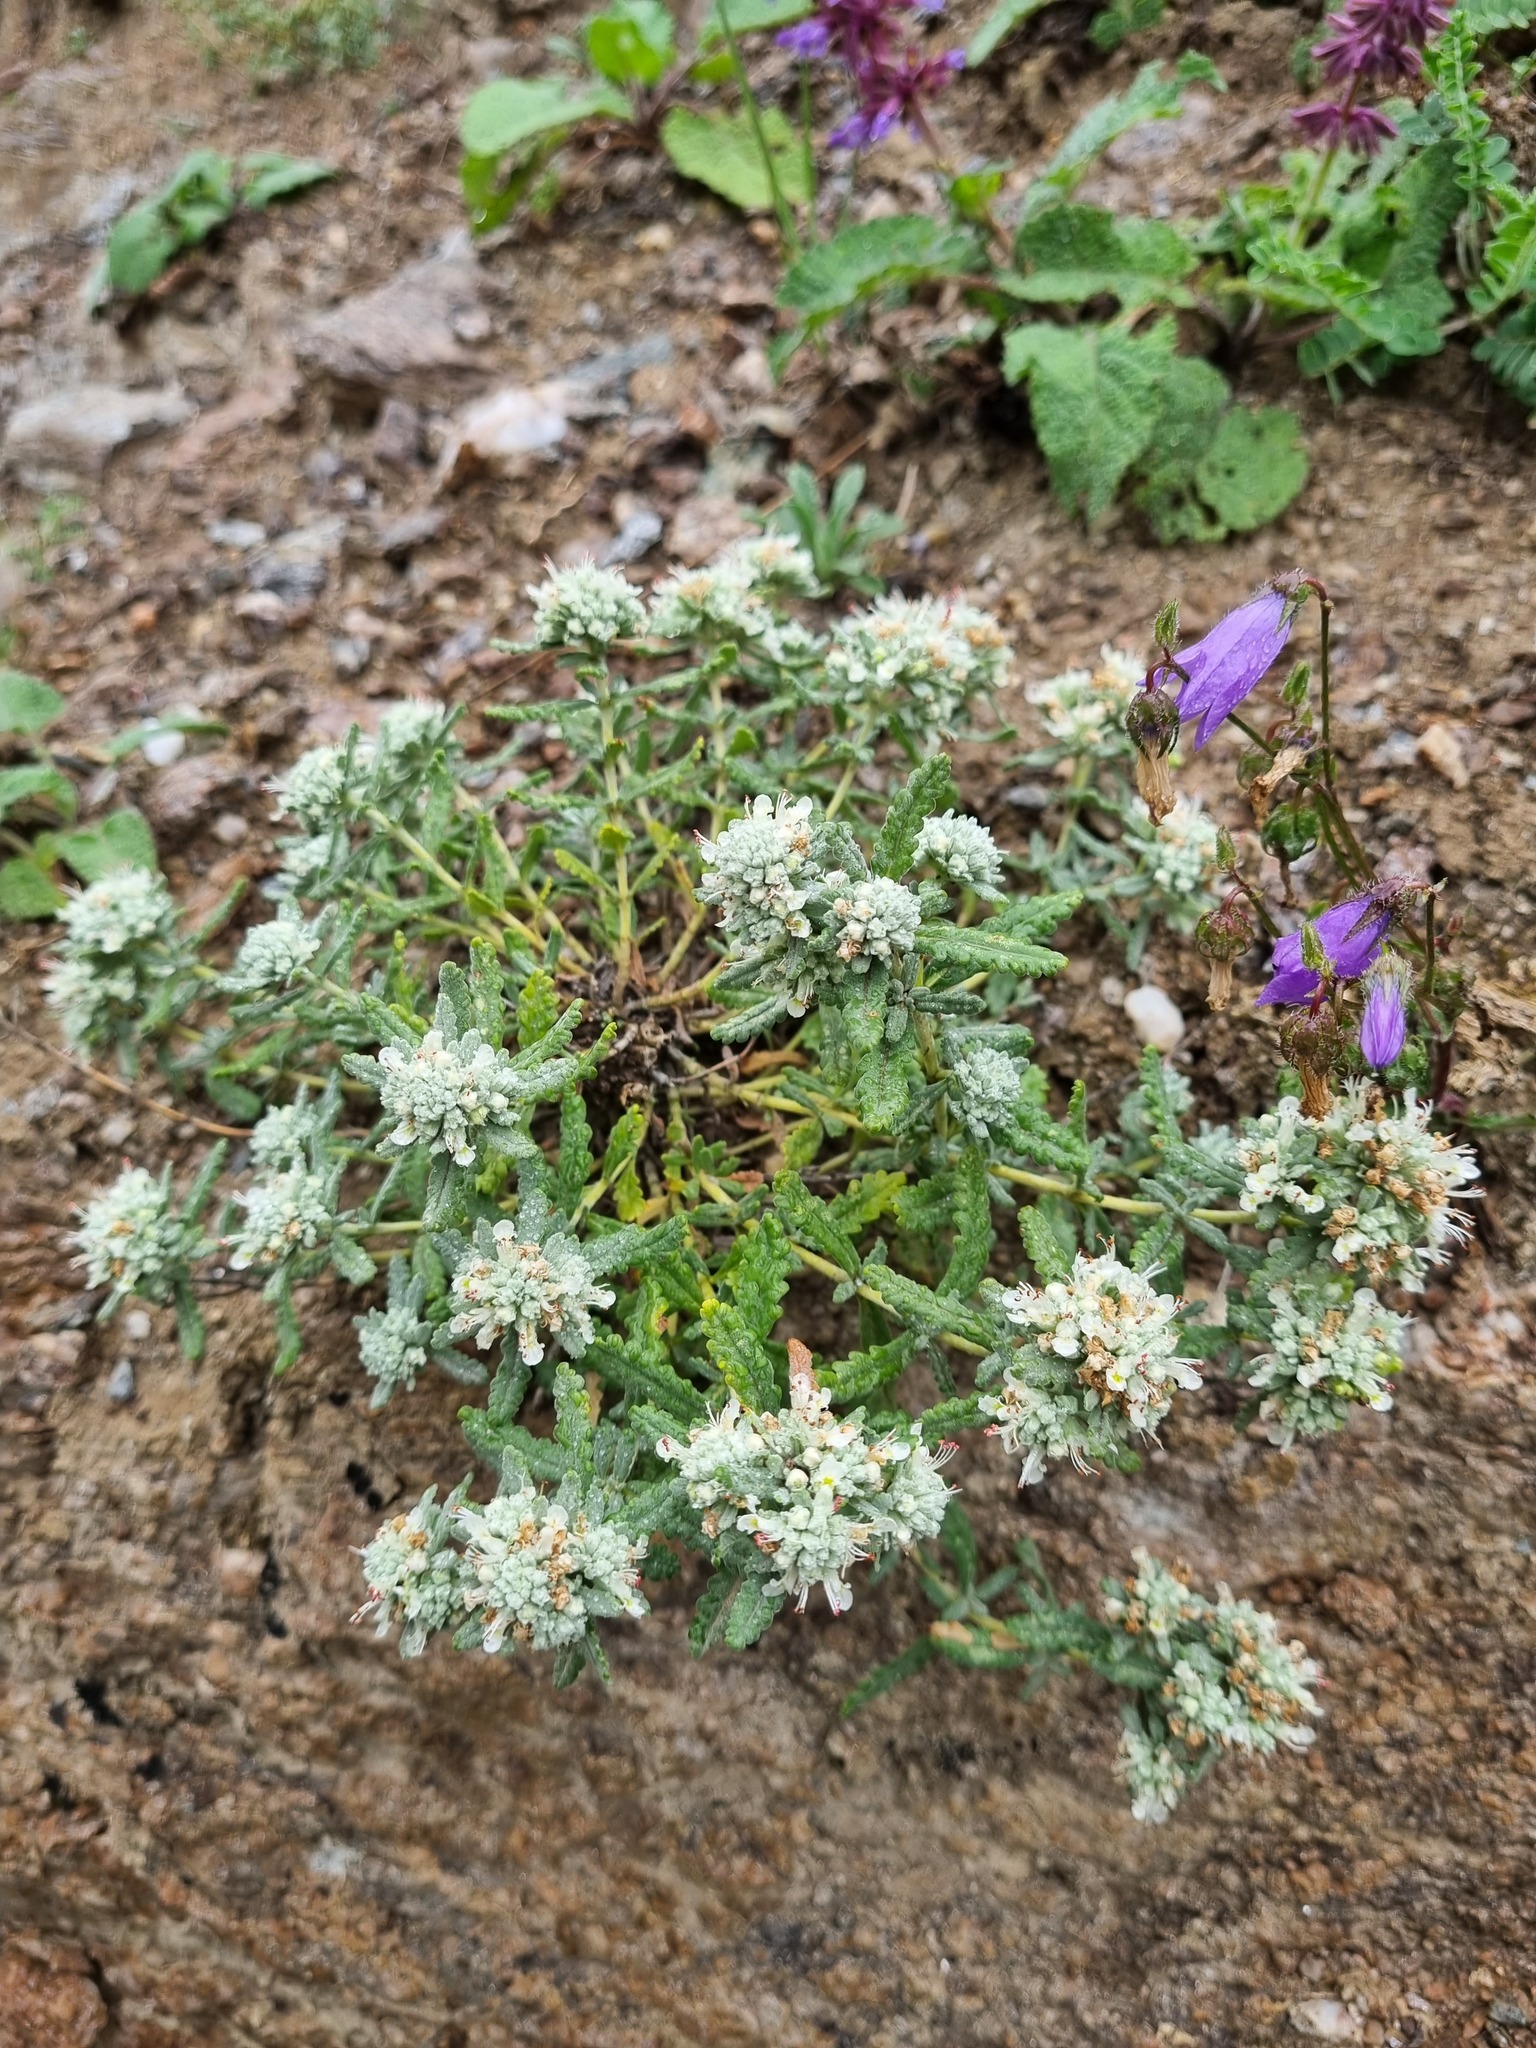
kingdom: Plantae
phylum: Tracheophyta
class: Magnoliopsida
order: Lamiales
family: Lamiaceae
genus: Teucrium
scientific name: Teucrium polium
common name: Poley
